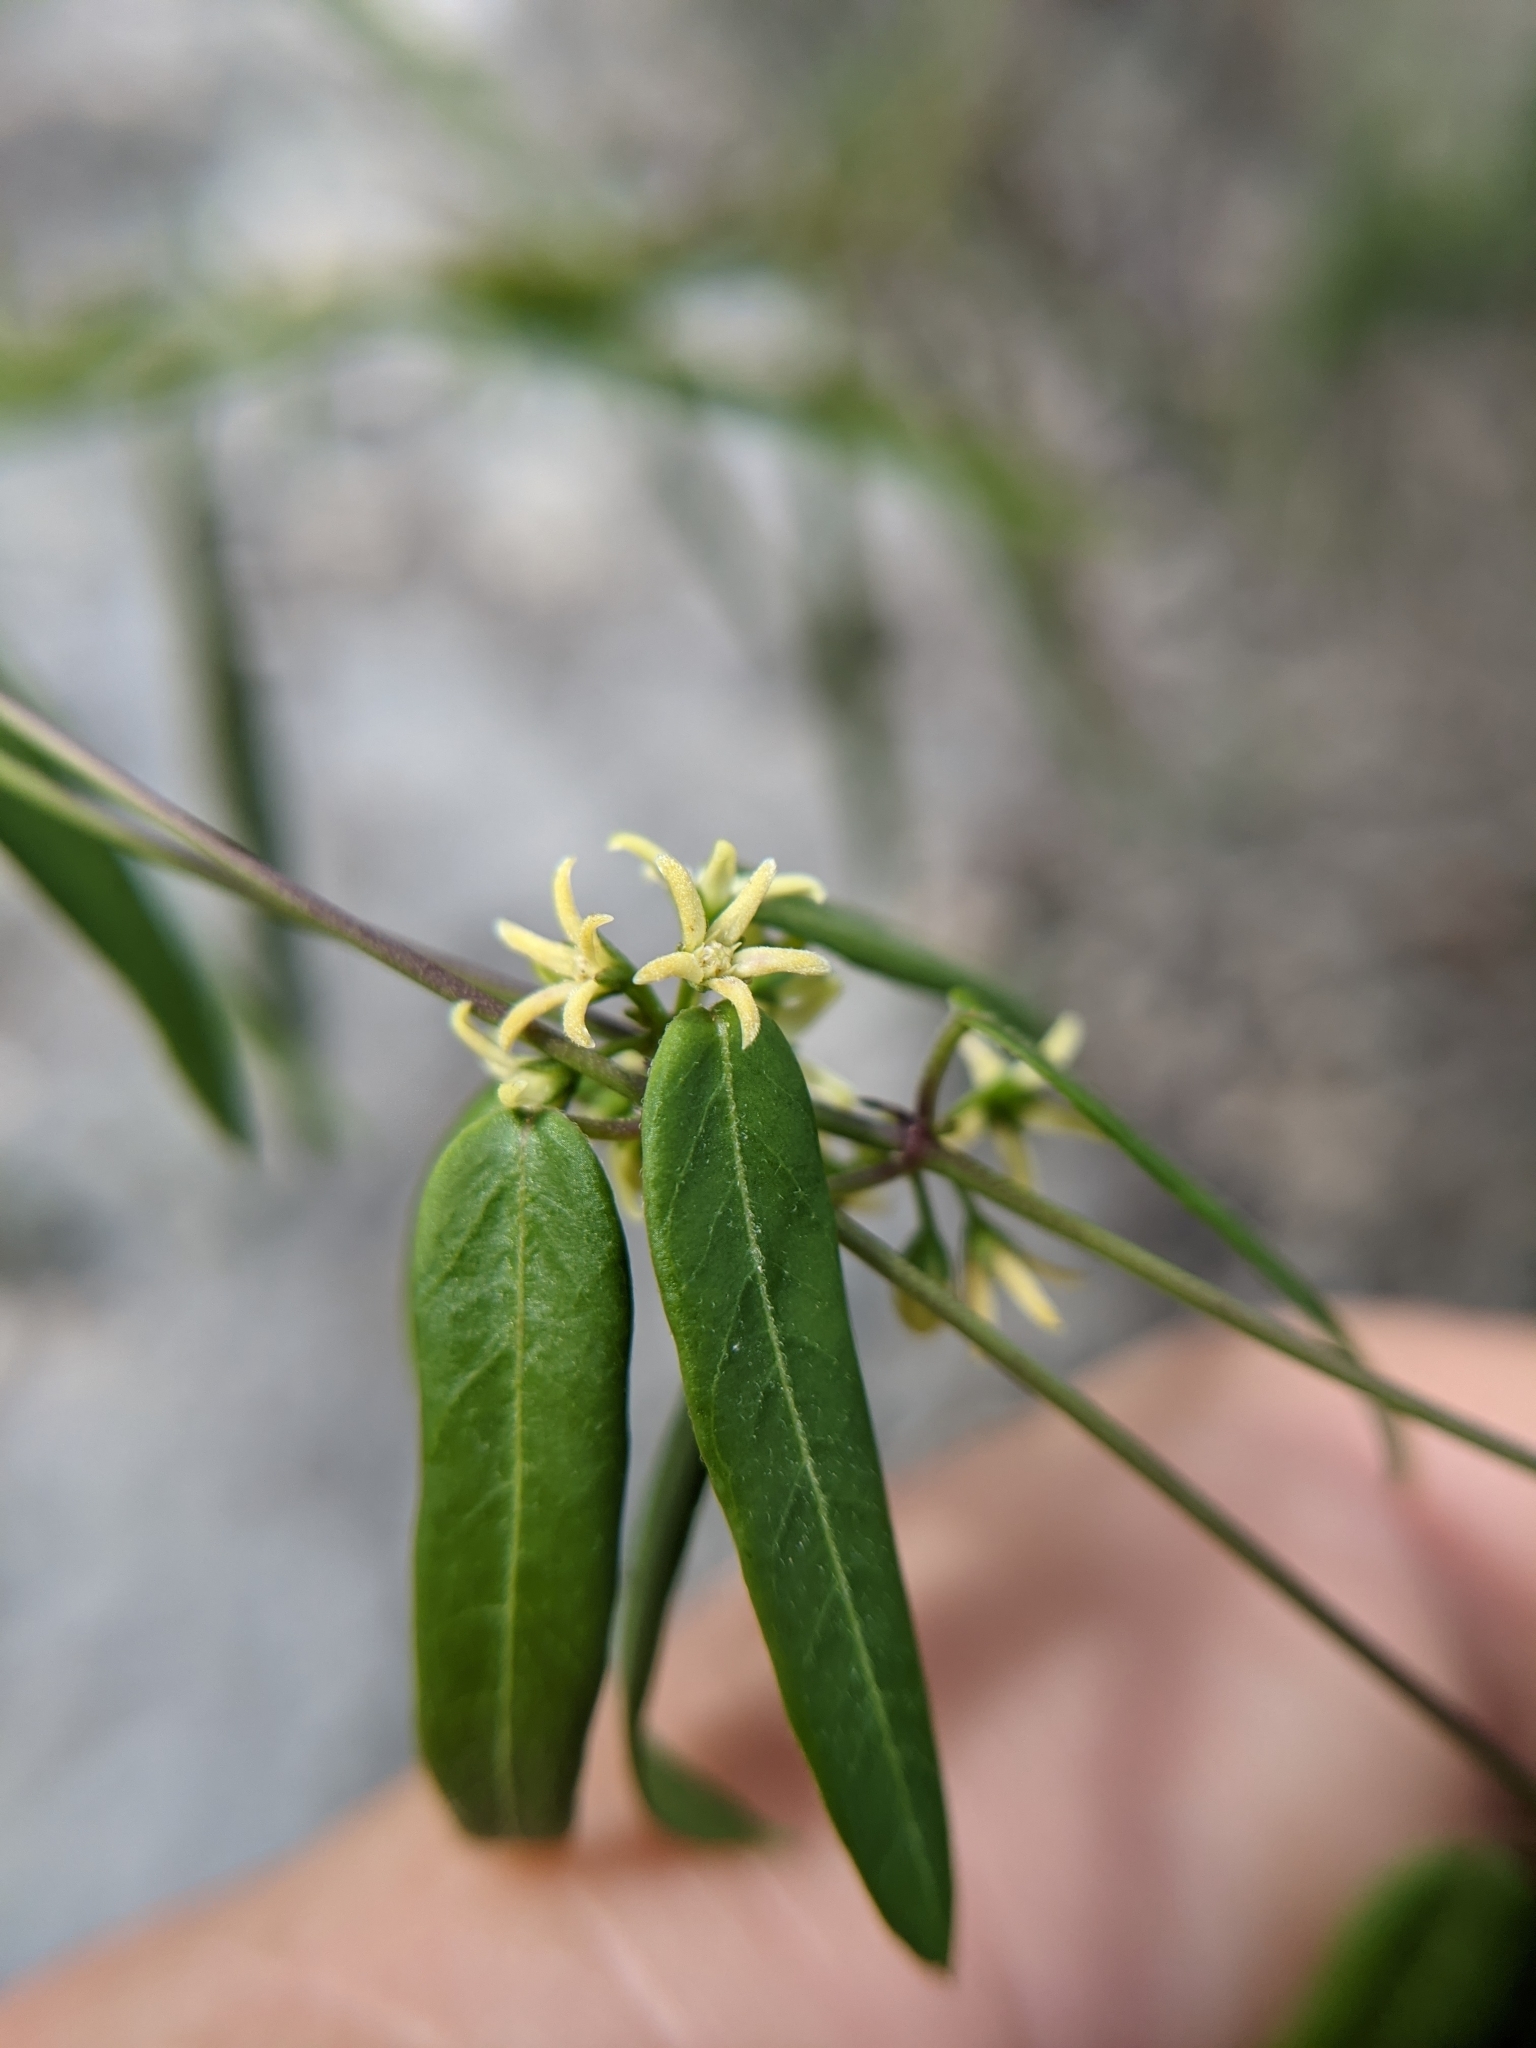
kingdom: Plantae
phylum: Tracheophyta
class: Magnoliopsida
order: Gentianales
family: Apocynaceae
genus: Metastelma
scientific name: Metastelma palmeri
